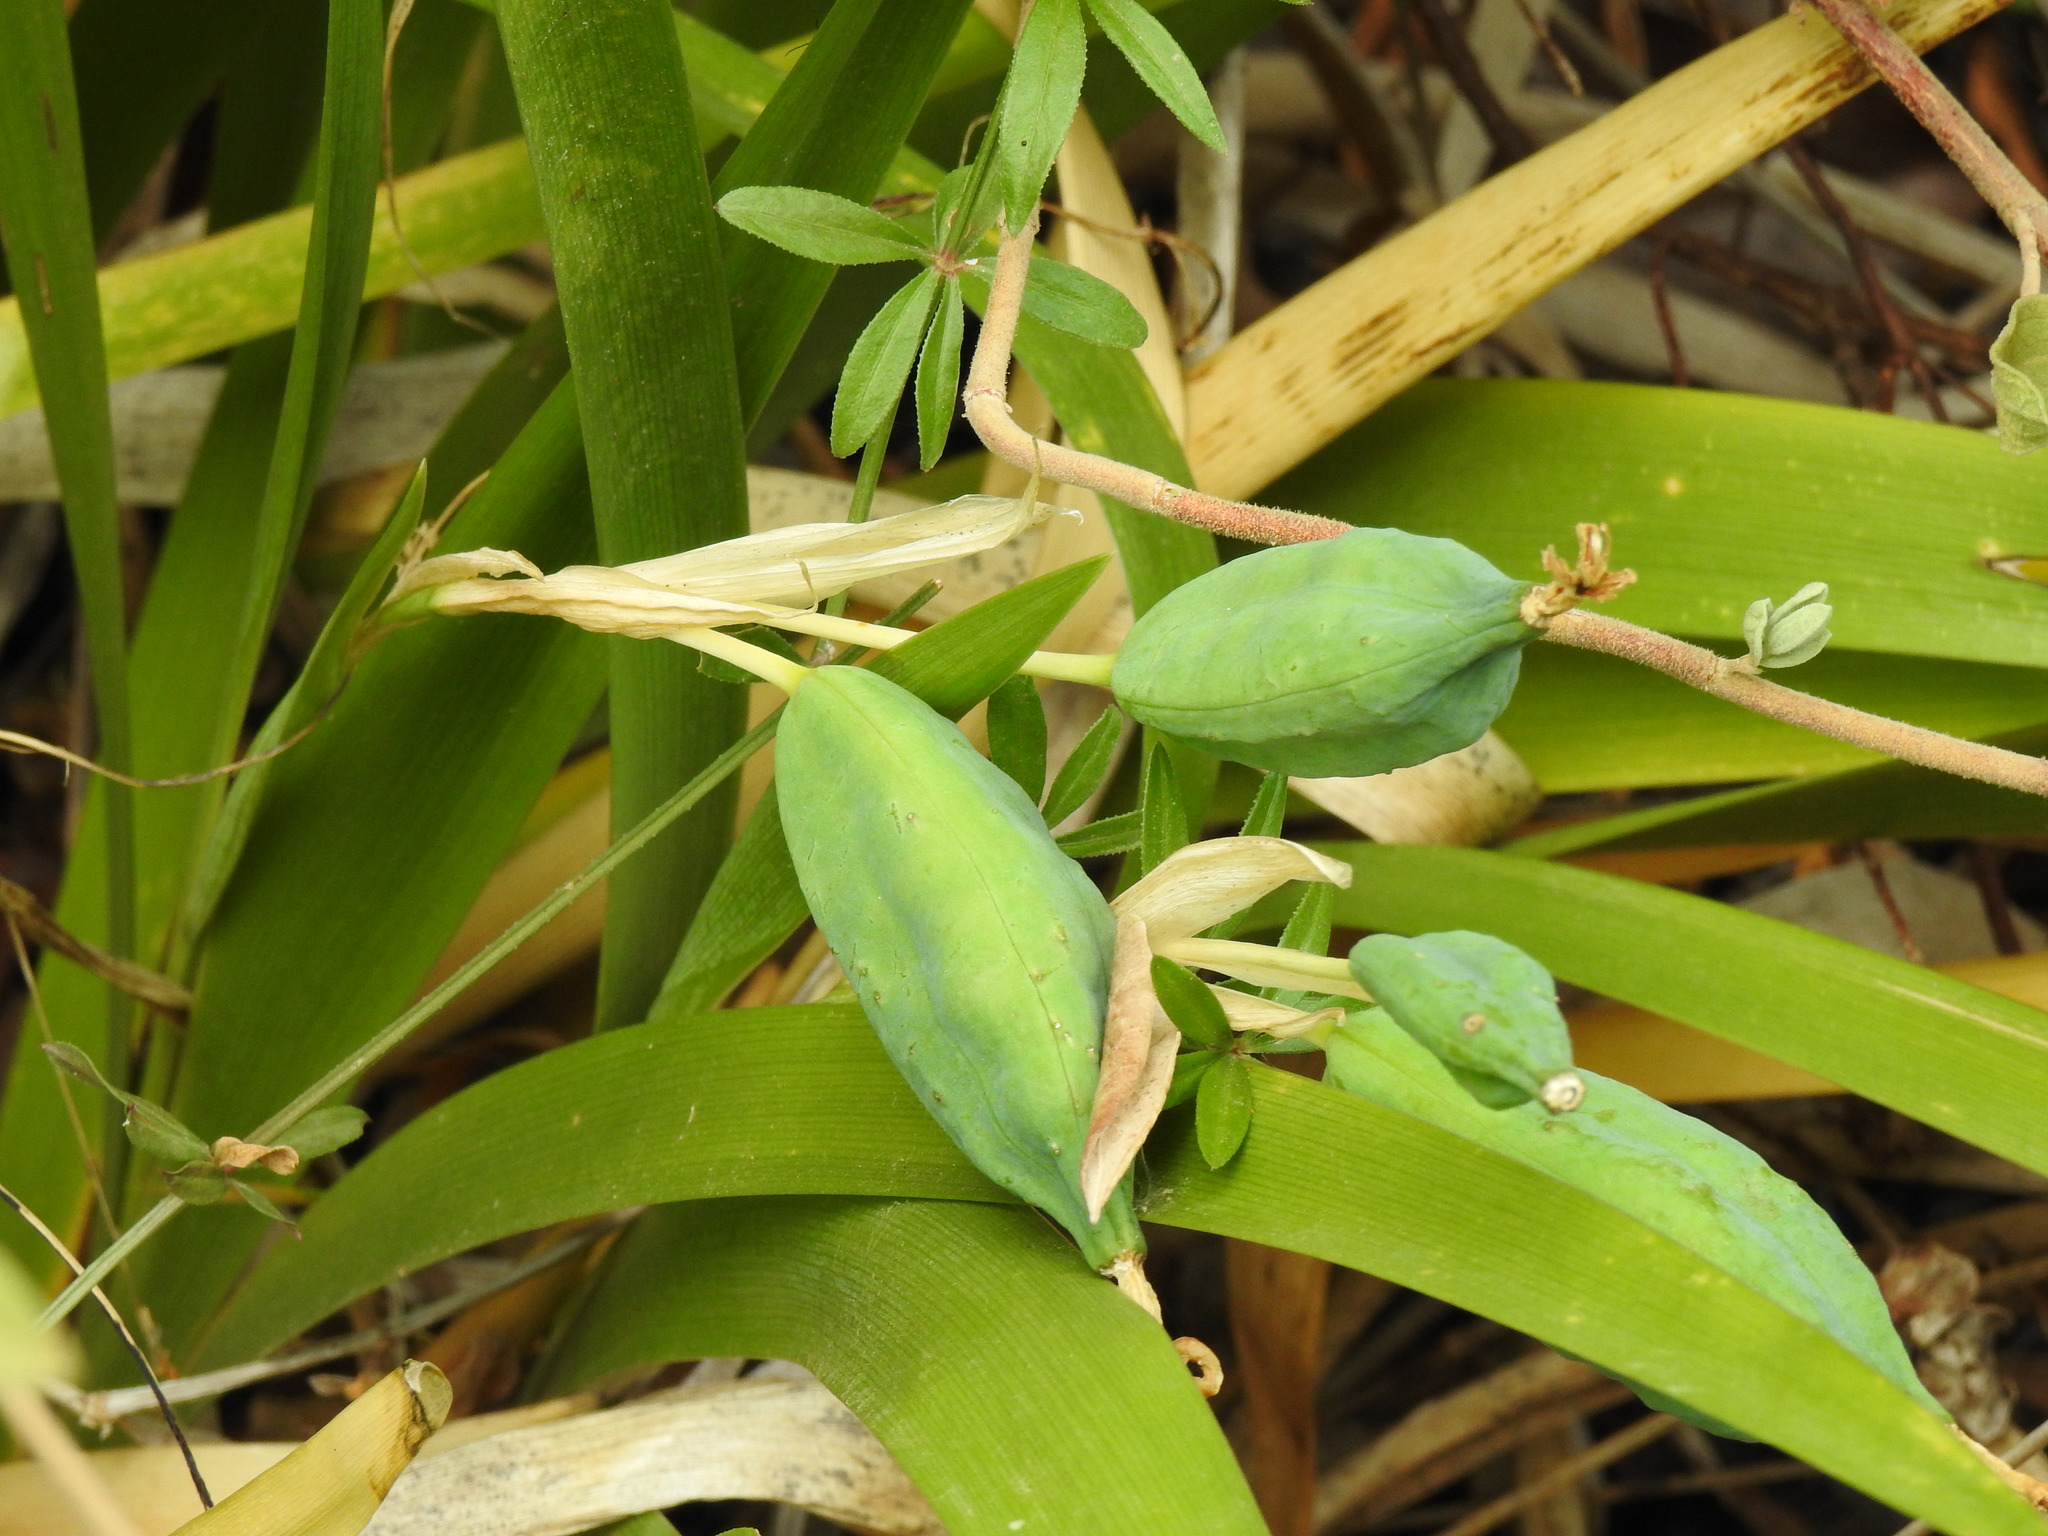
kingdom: Plantae
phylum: Tracheophyta
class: Liliopsida
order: Asparagales
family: Iridaceae
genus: Iris
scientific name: Iris foetidissima
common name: Stinking iris
